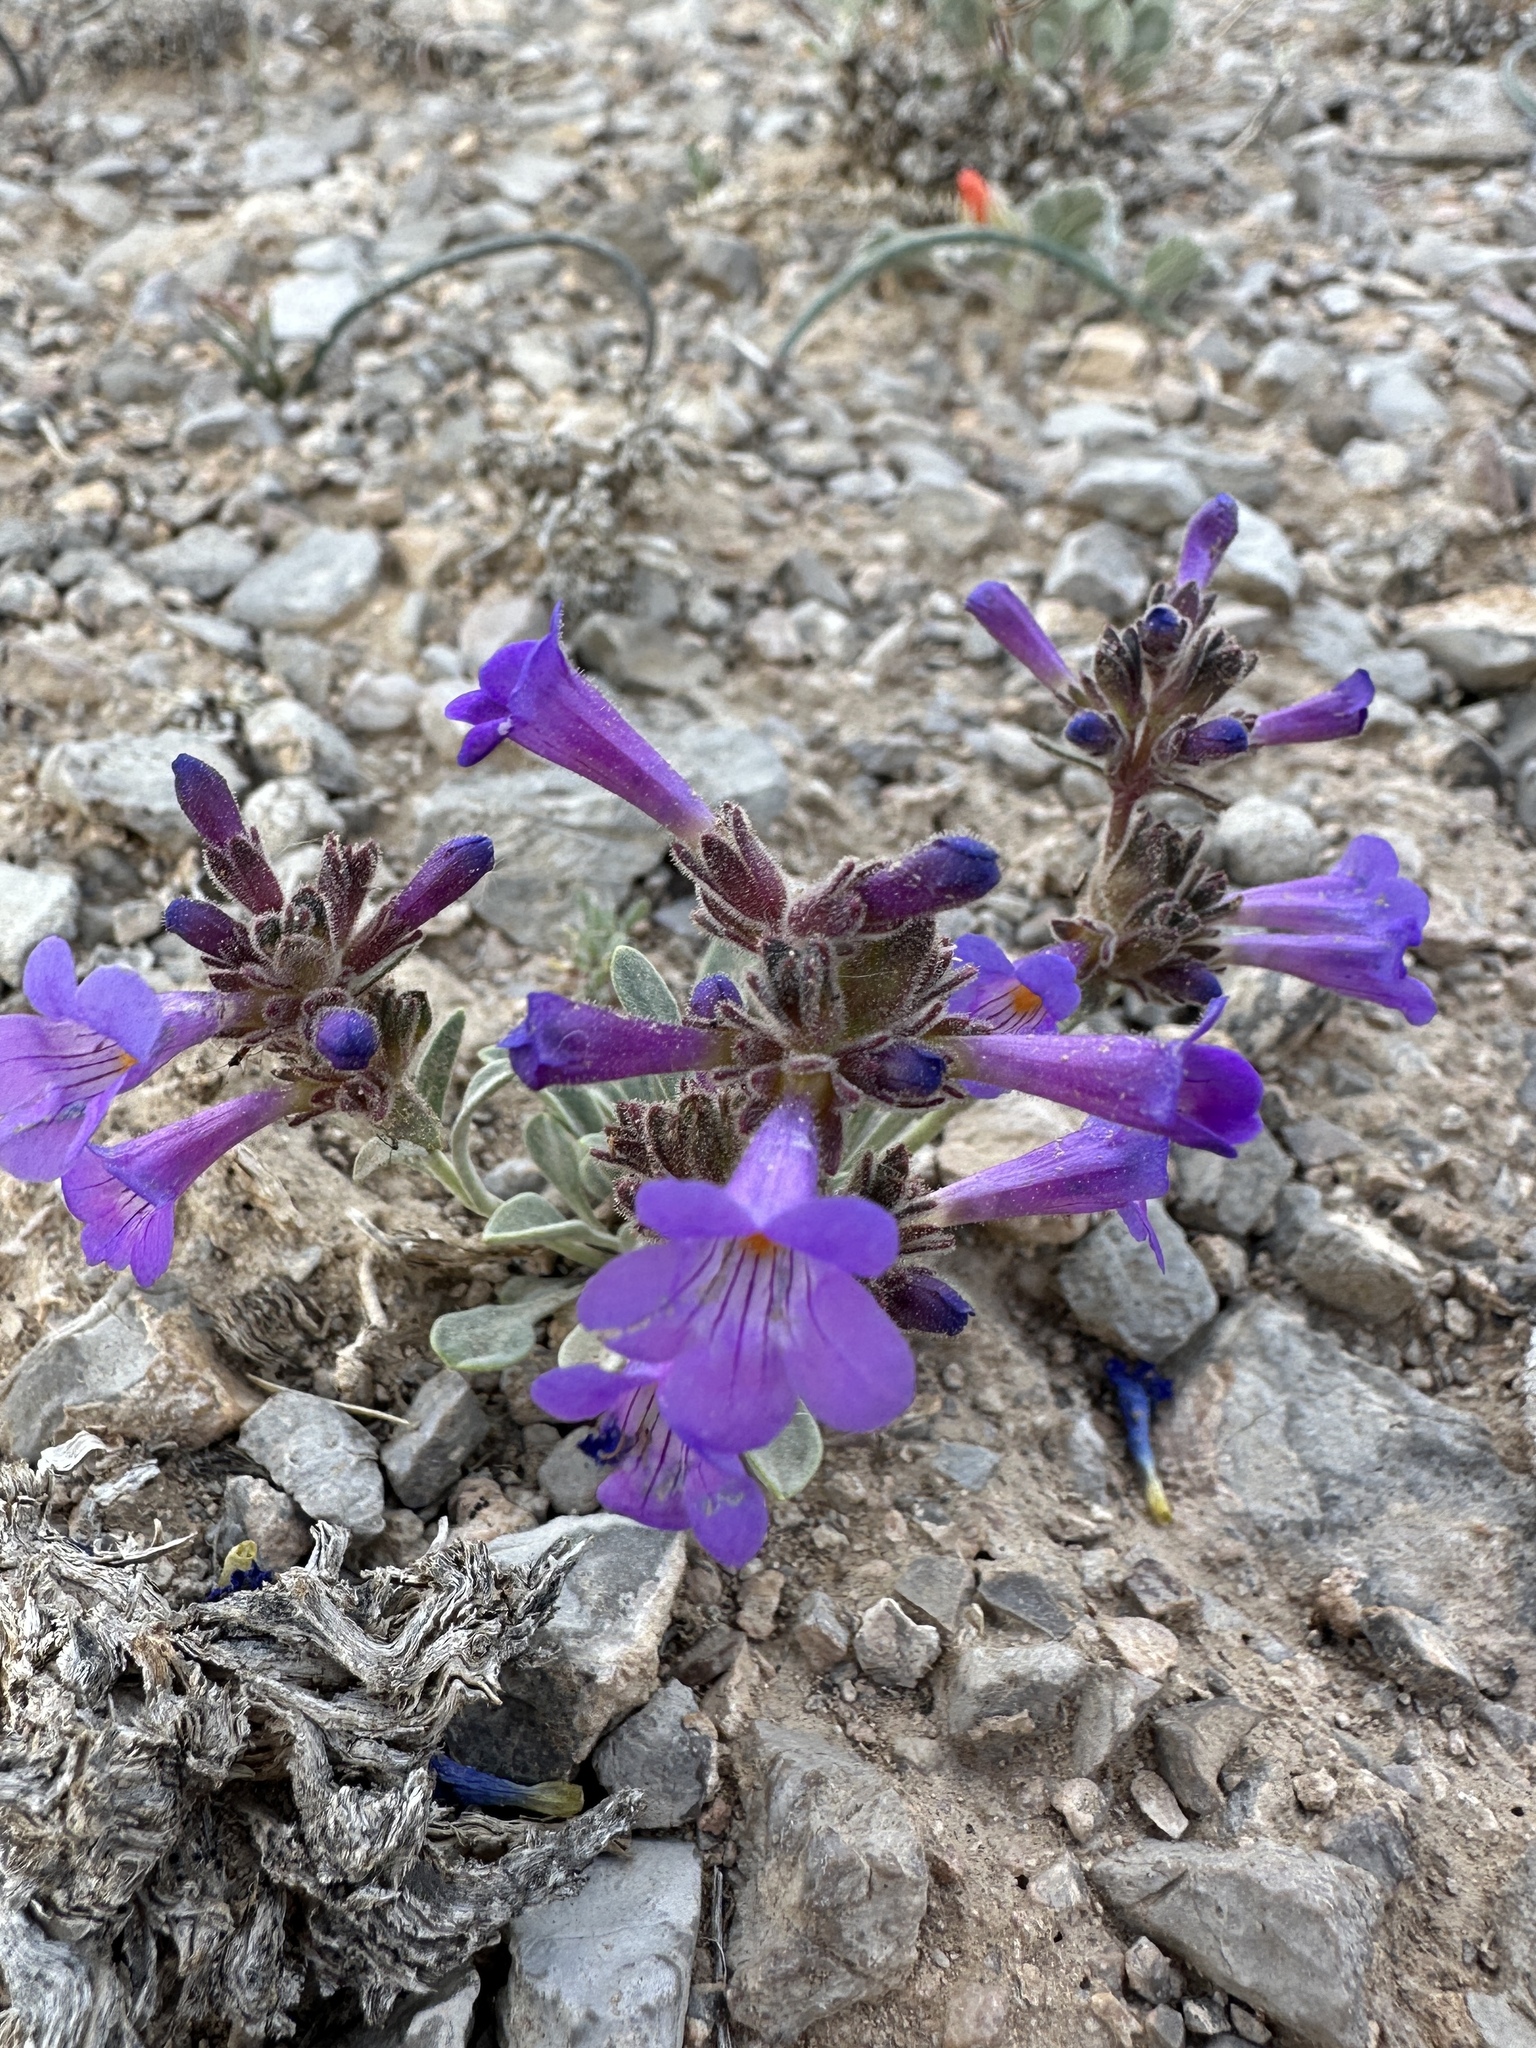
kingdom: Plantae
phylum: Tracheophyta
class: Magnoliopsida
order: Lamiales
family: Plantaginaceae
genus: Penstemon
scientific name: Penstemon nanus
